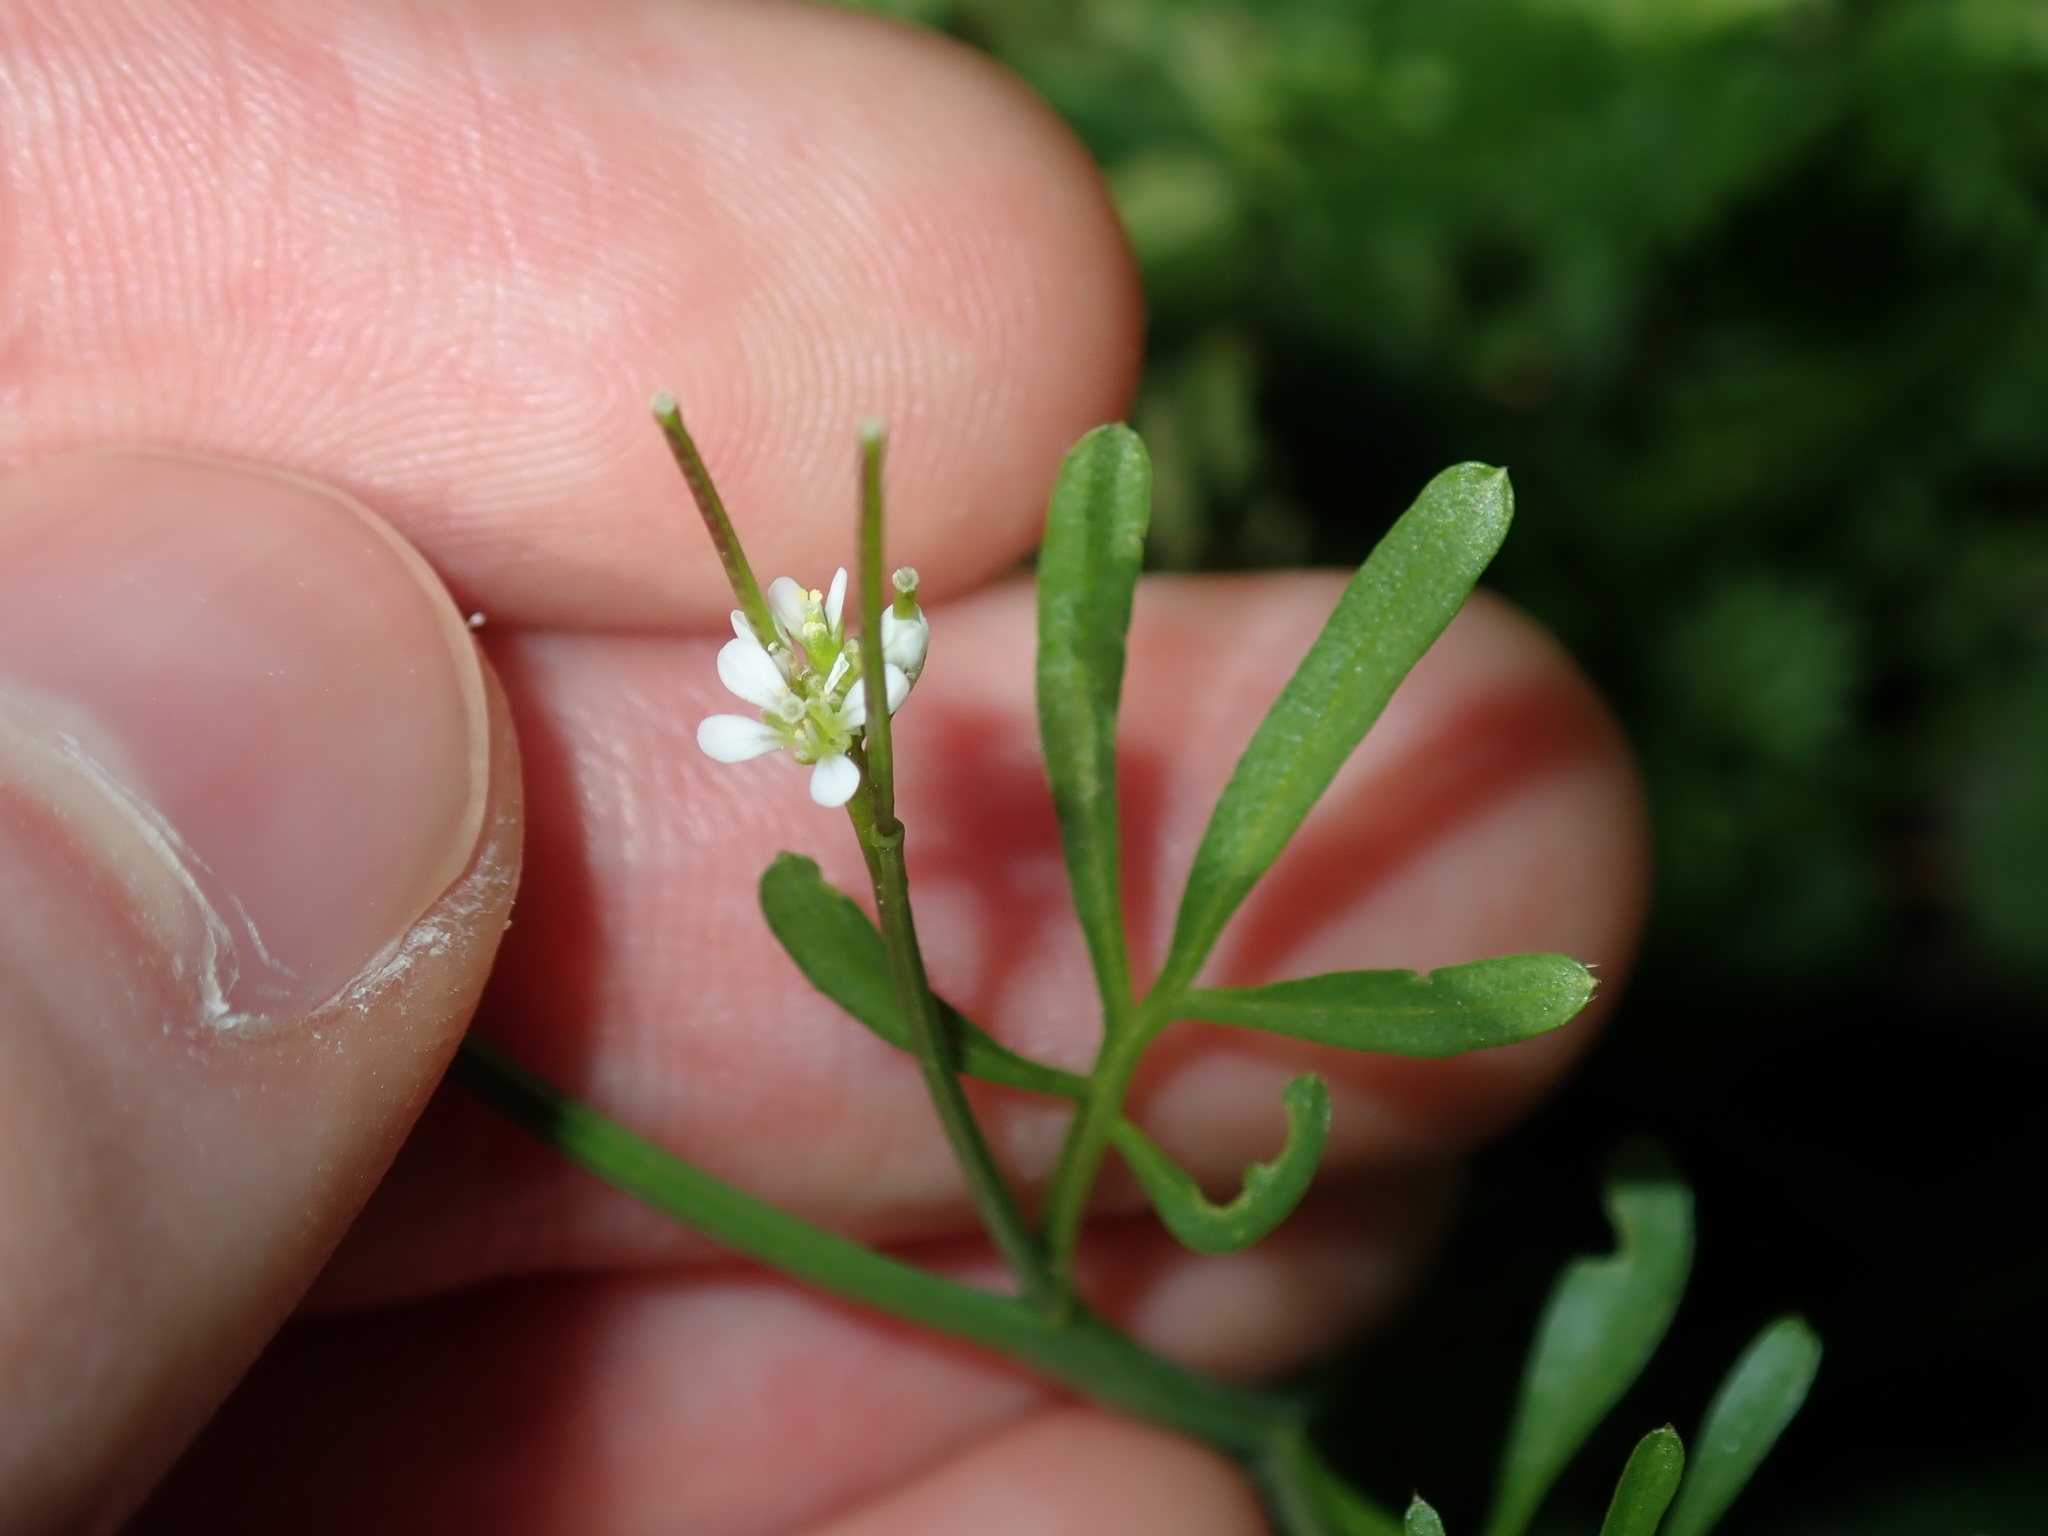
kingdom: Plantae
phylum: Tracheophyta
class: Magnoliopsida
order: Brassicales
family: Brassicaceae
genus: Cardamine
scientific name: Cardamine hirsuta
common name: Hairy bittercress
